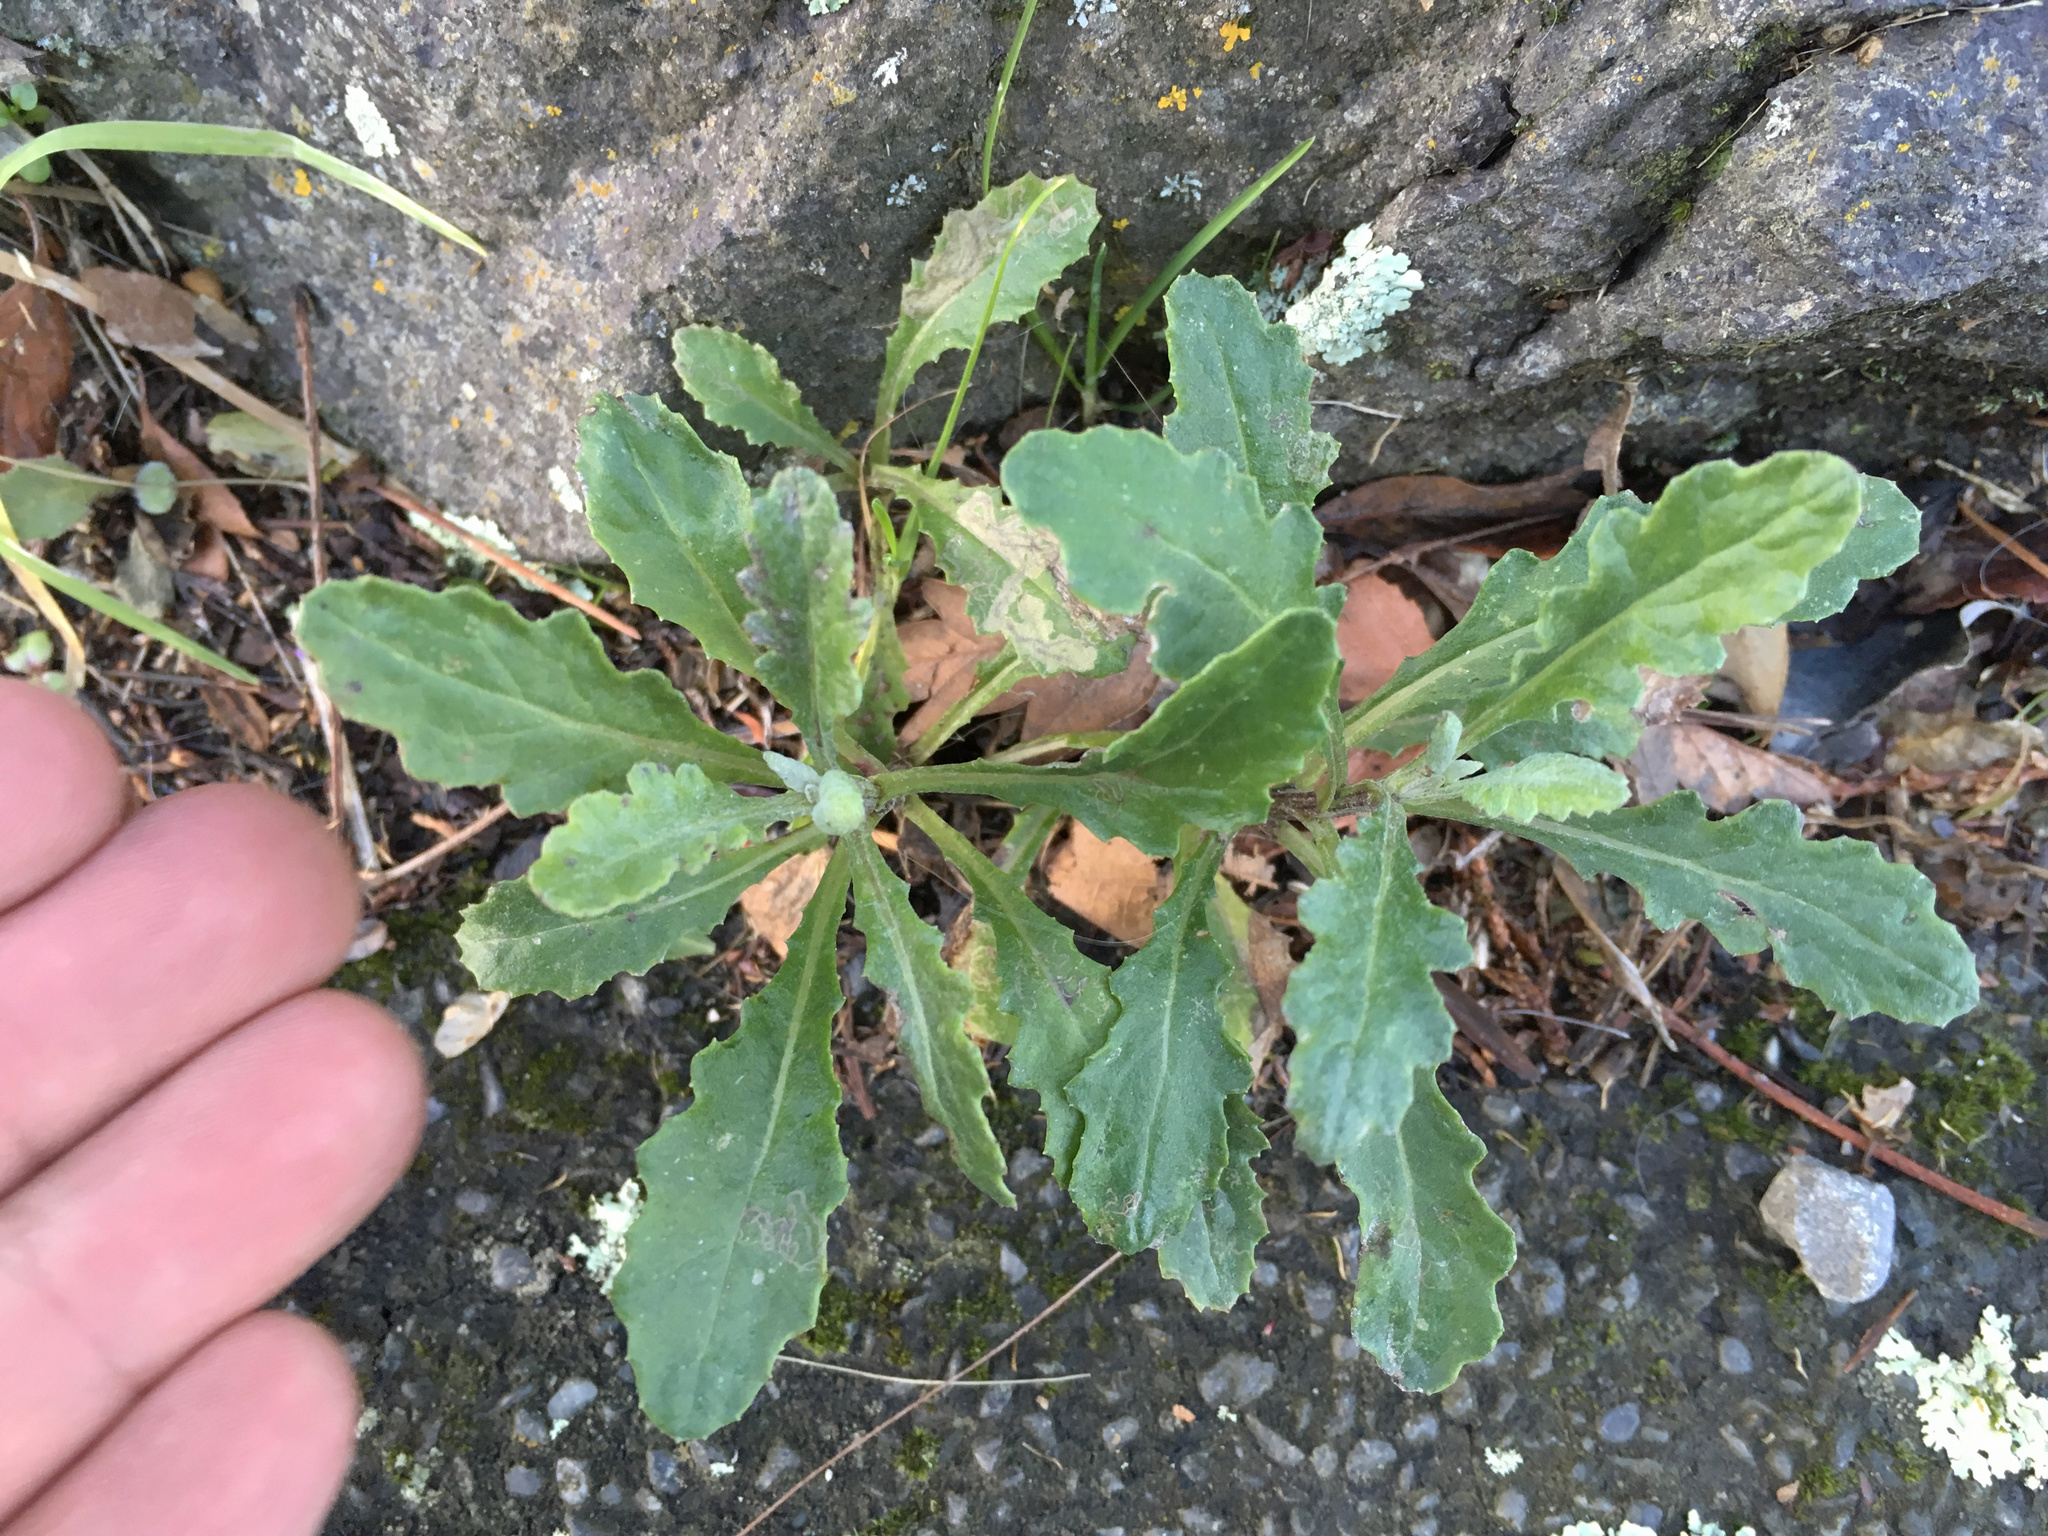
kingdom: Plantae
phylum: Tracheophyta
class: Magnoliopsida
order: Asterales
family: Asteraceae
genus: Senecio
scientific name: Senecio glomeratus
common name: Cutleaf burnweed
